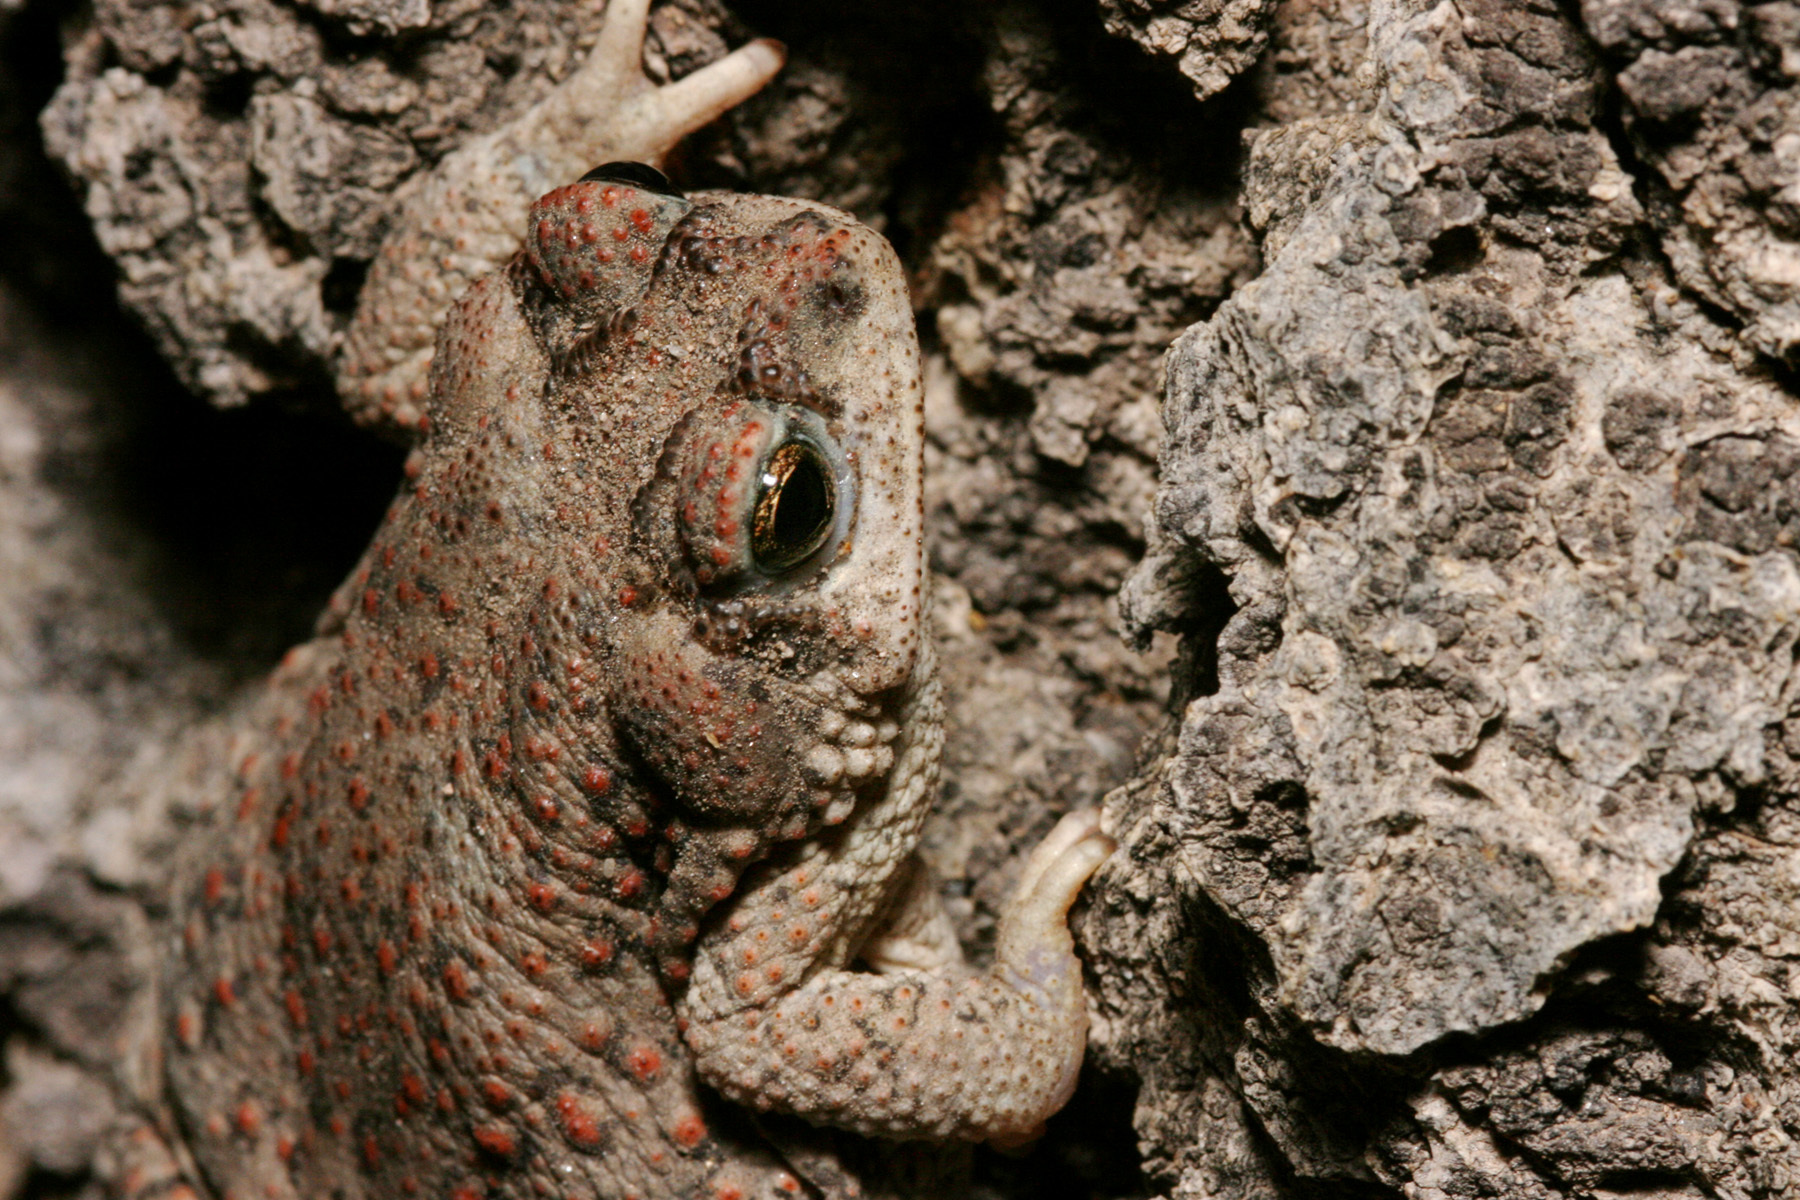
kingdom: Animalia
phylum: Chordata
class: Amphibia
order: Anura
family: Bufonidae
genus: Anaxyrus
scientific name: Anaxyrus punctatus
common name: Red-spotted toad
